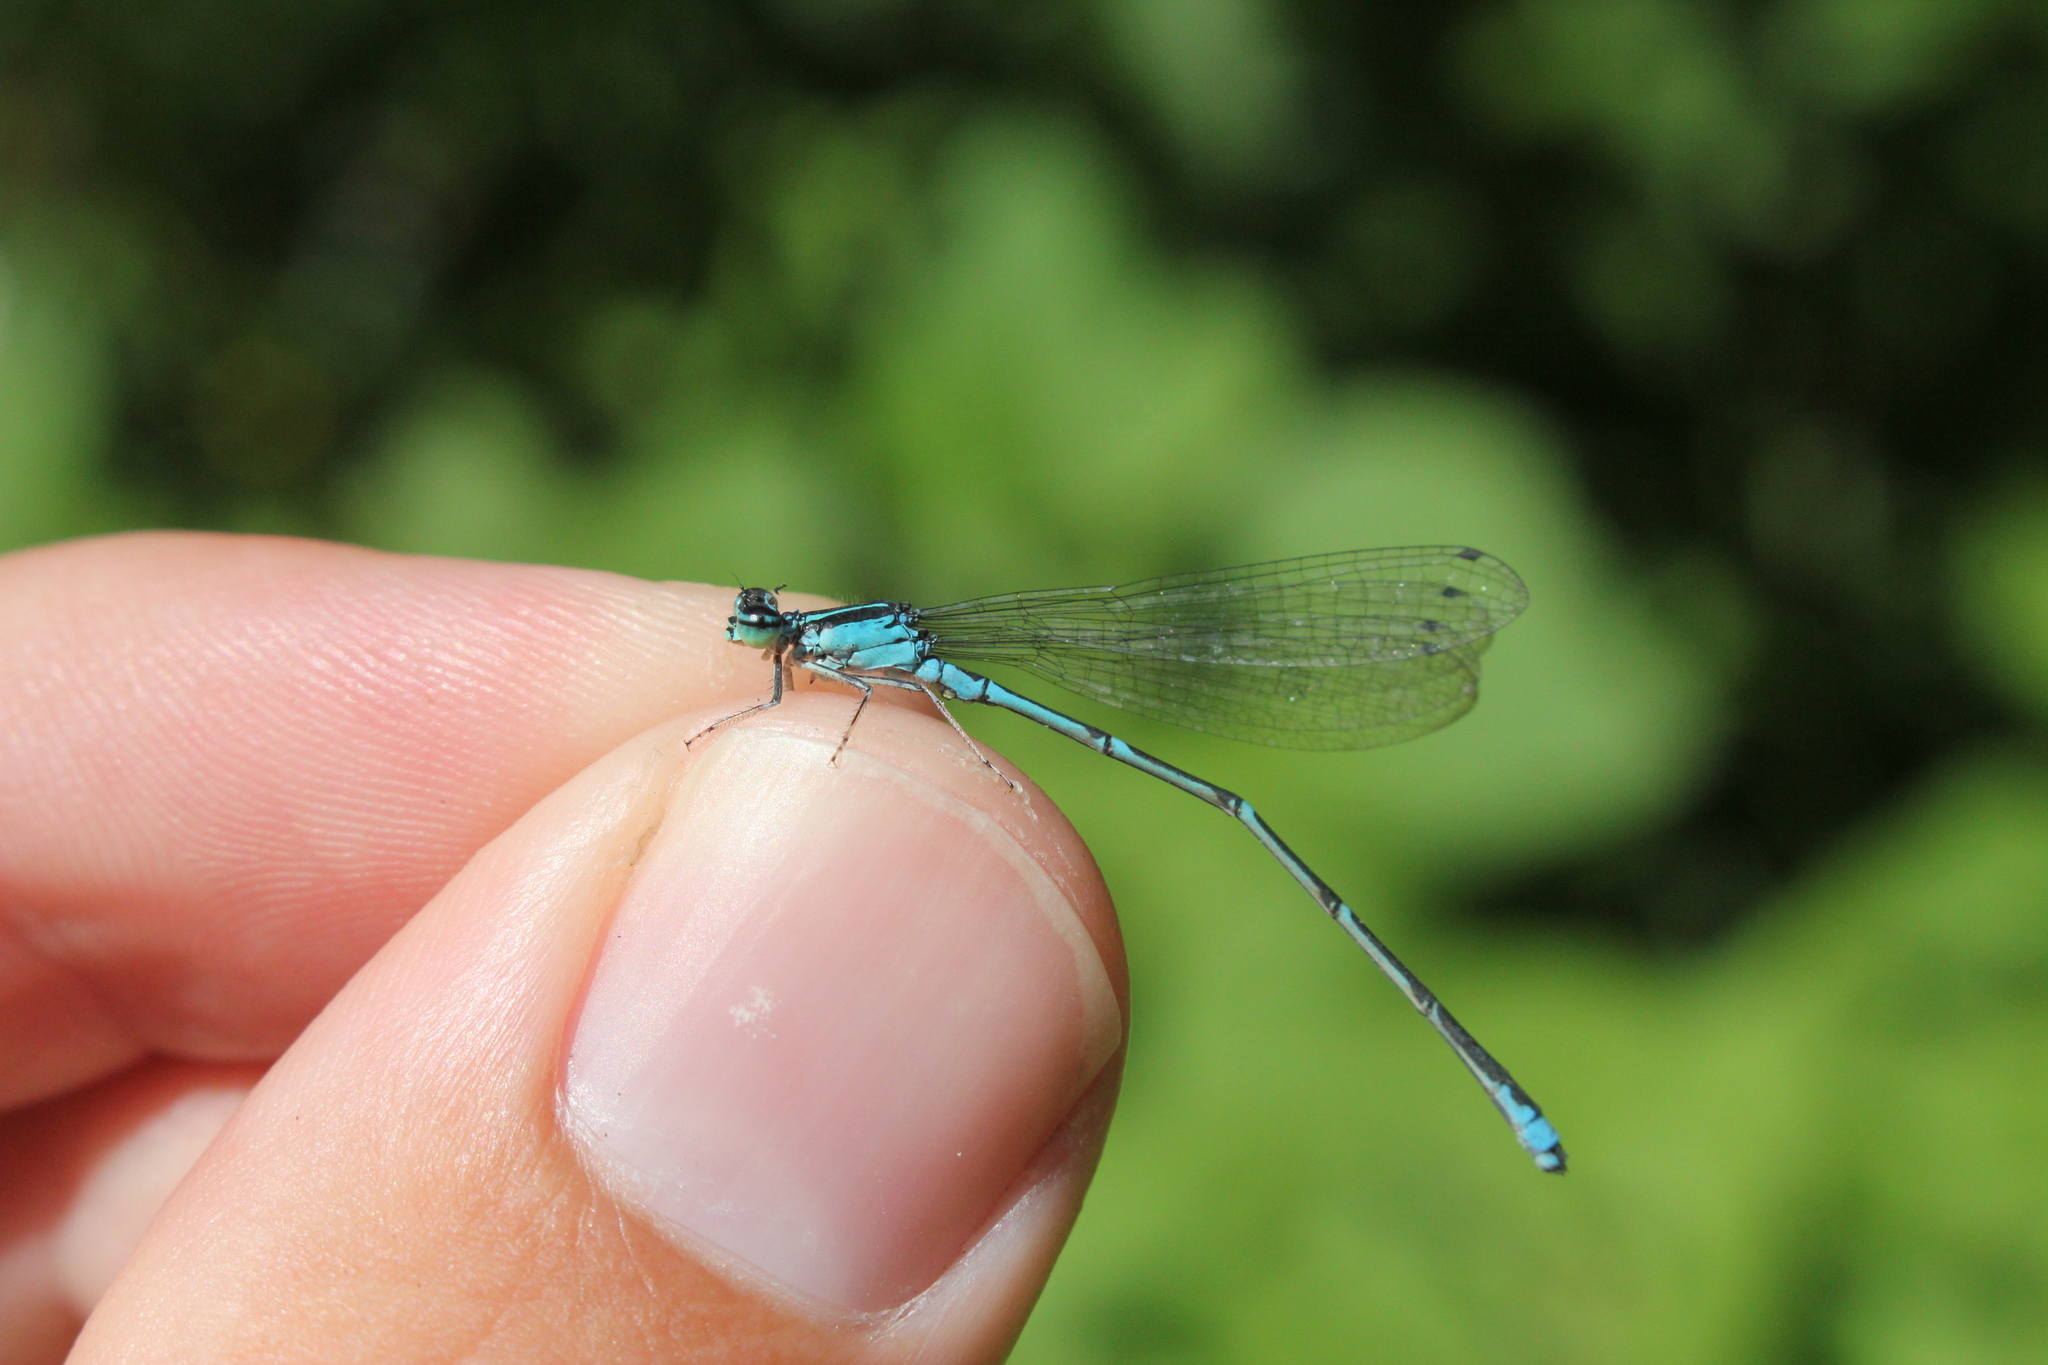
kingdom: Animalia
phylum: Arthropoda
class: Insecta
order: Odonata
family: Coenagrionidae
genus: Enallagma
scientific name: Enallagma exsulans
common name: Stream bluet
